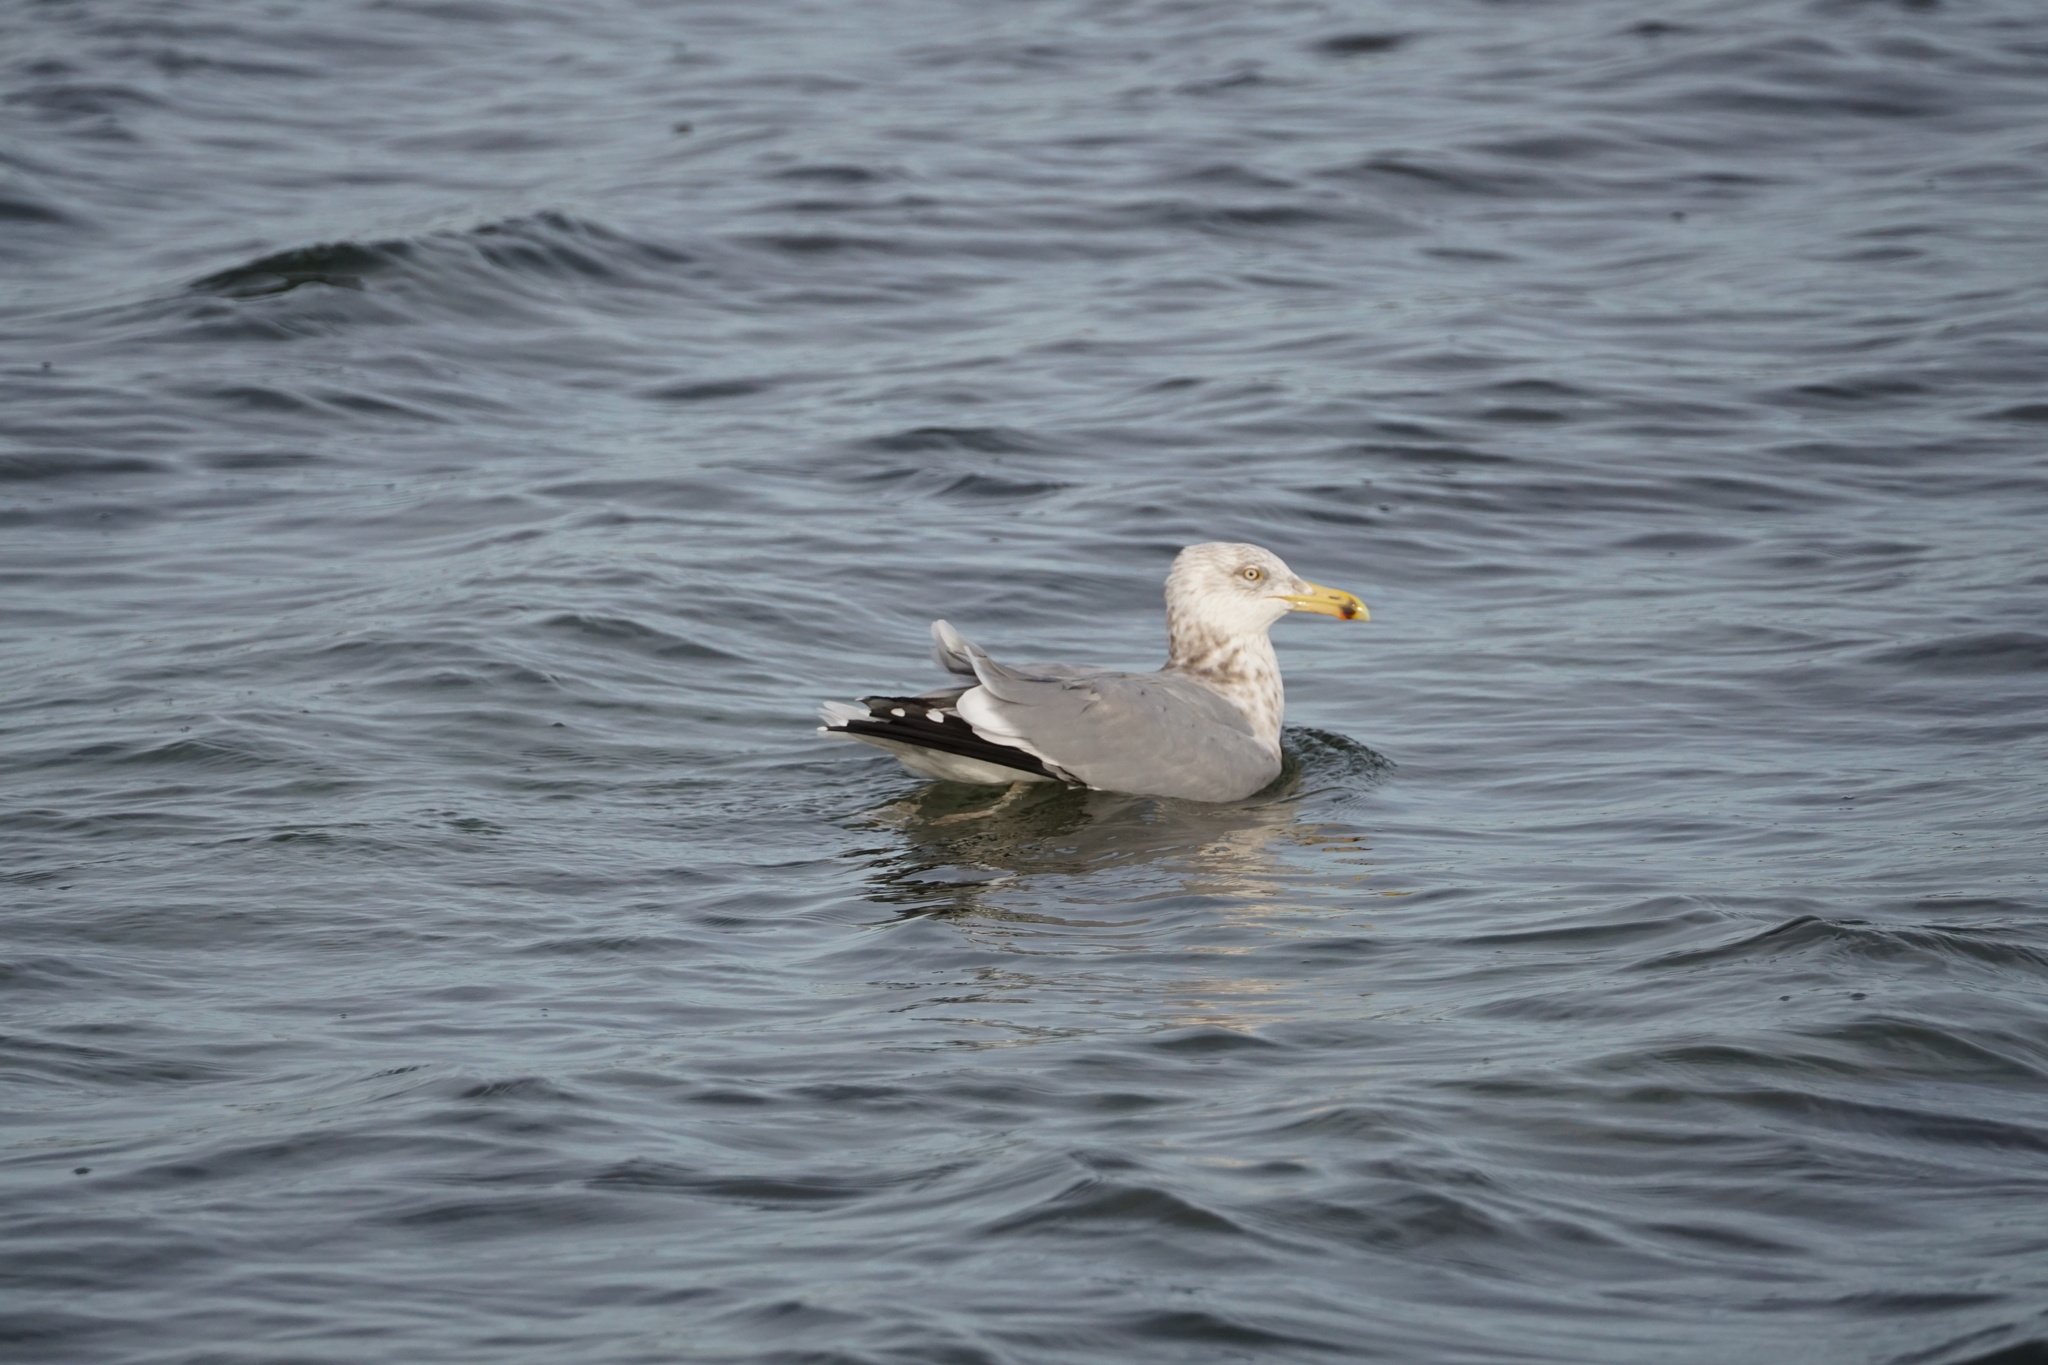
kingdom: Animalia
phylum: Chordata
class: Aves
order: Charadriiformes
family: Laridae
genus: Larus
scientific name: Larus argentatus
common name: Herring gull
